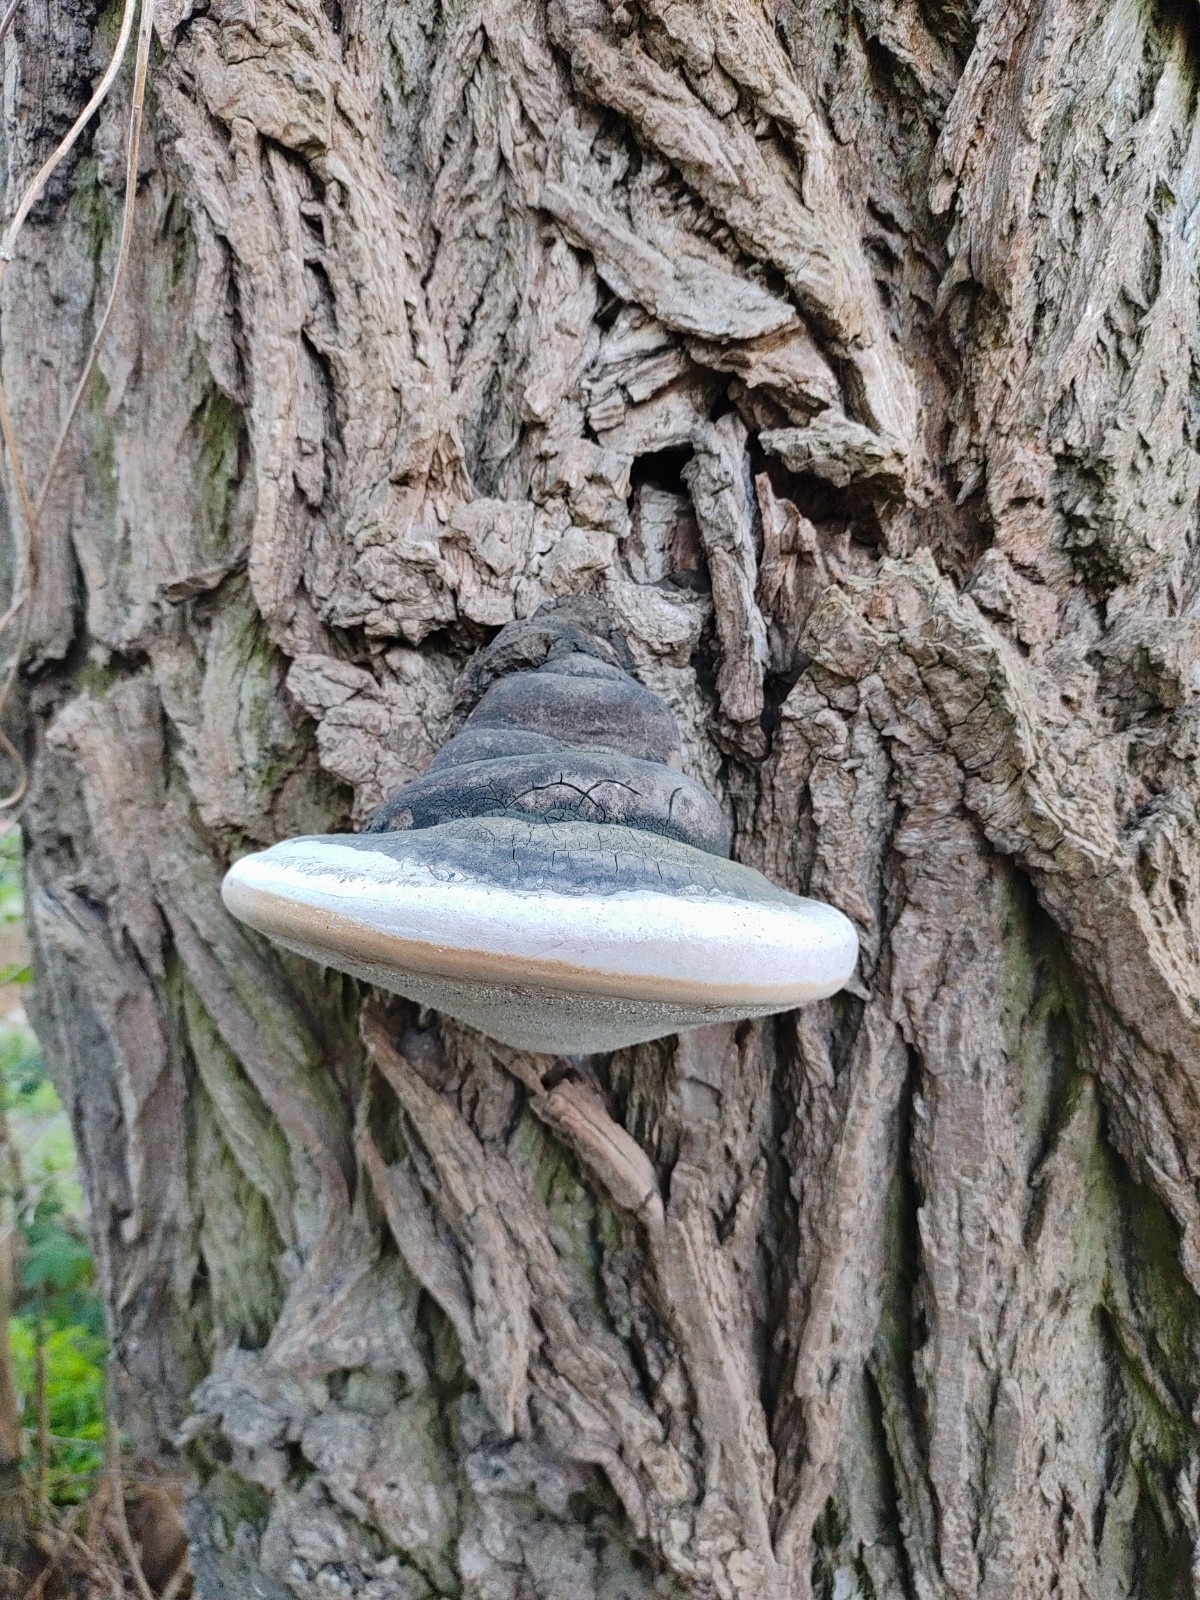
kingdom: Fungi
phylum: Basidiomycota
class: Agaricomycetes
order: Polyporales
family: Polyporaceae
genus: Fomes
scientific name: Fomes fomentarius
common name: Hoof fungus
